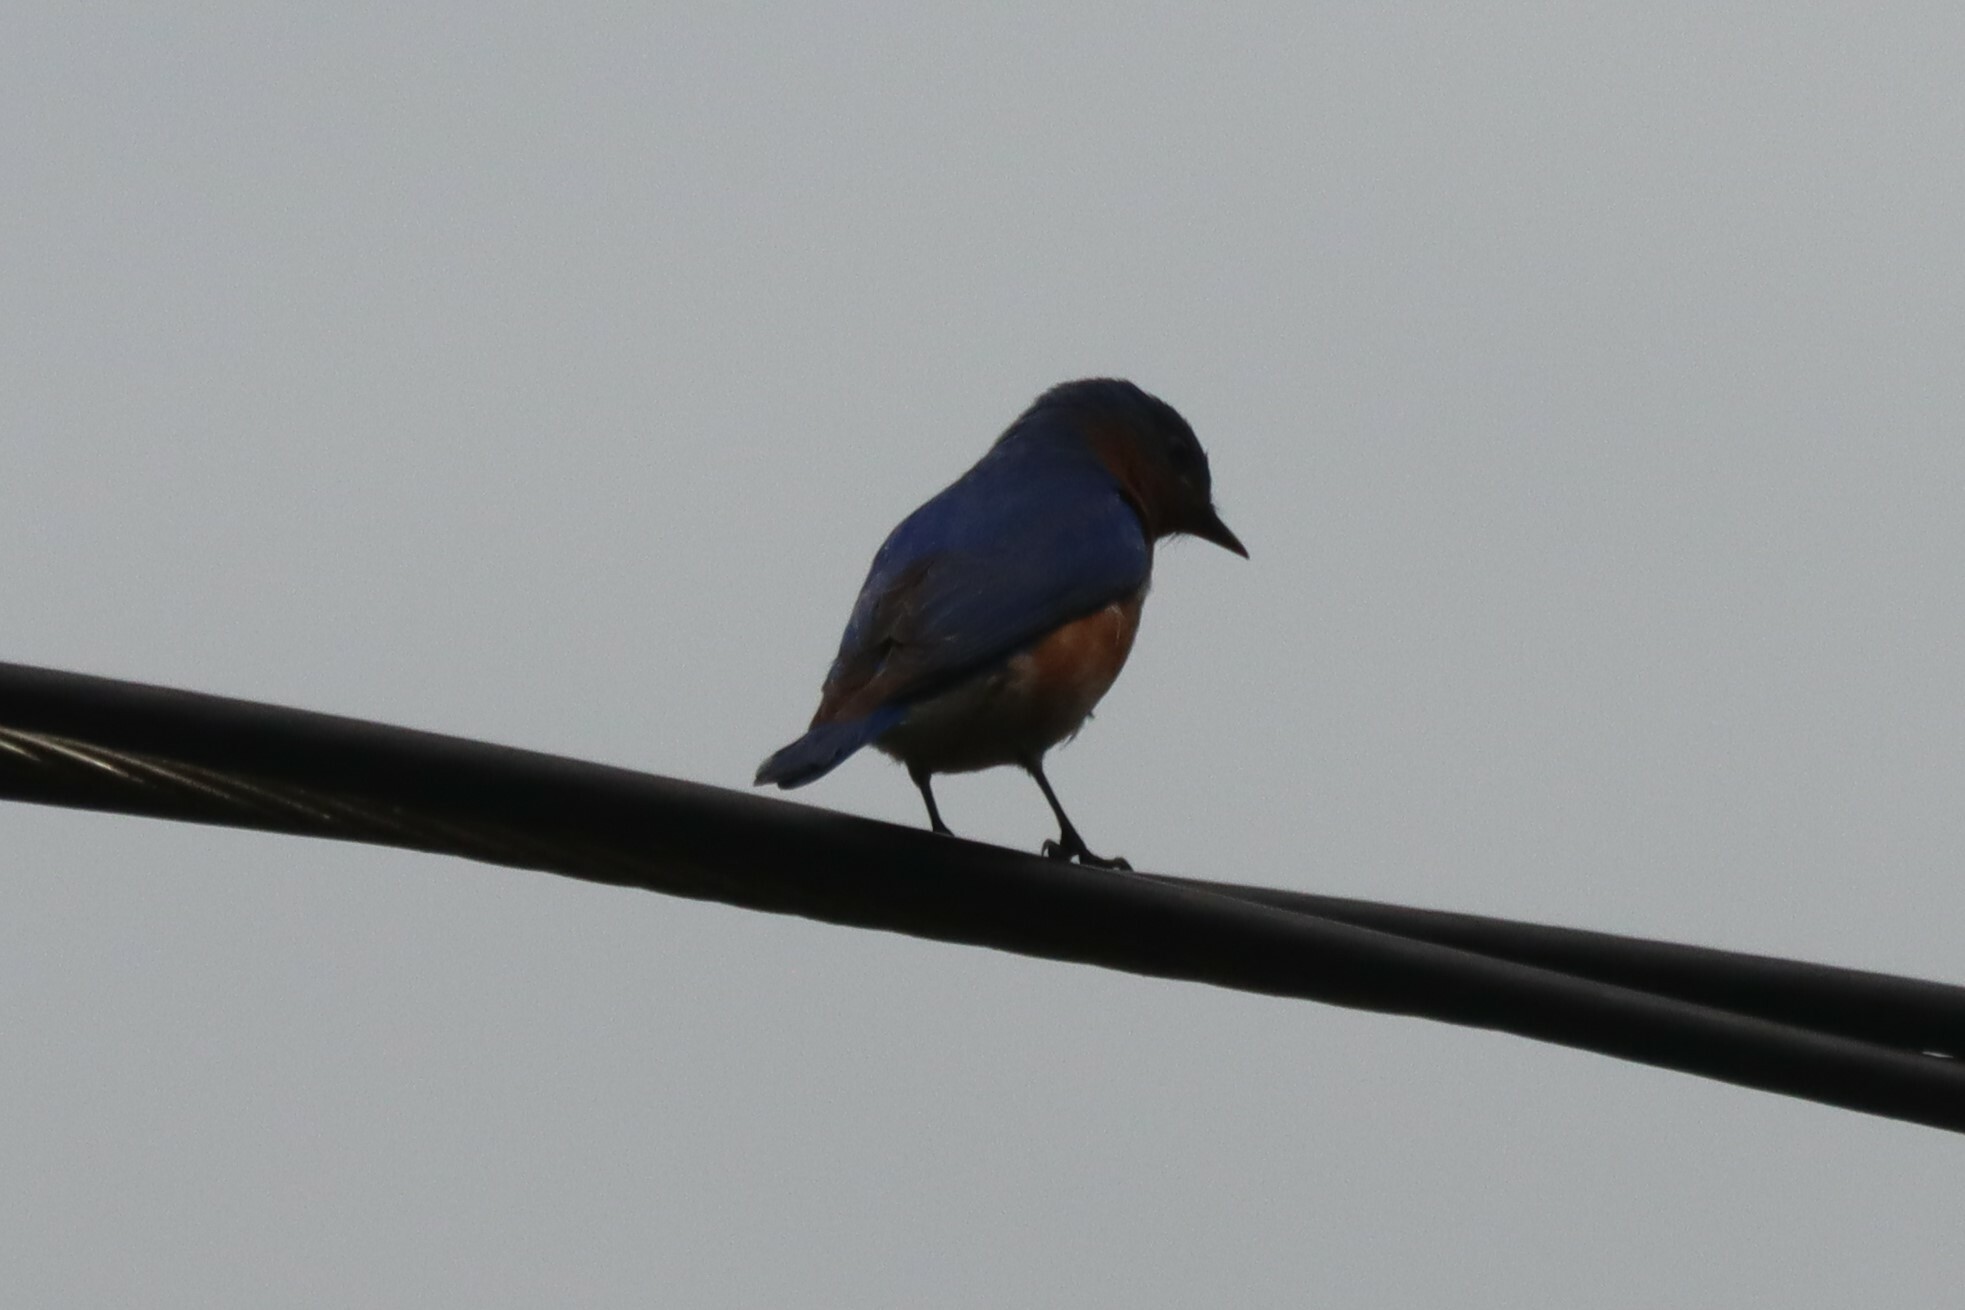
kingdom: Animalia
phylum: Chordata
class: Aves
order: Passeriformes
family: Turdidae
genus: Sialia
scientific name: Sialia sialis
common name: Eastern bluebird
